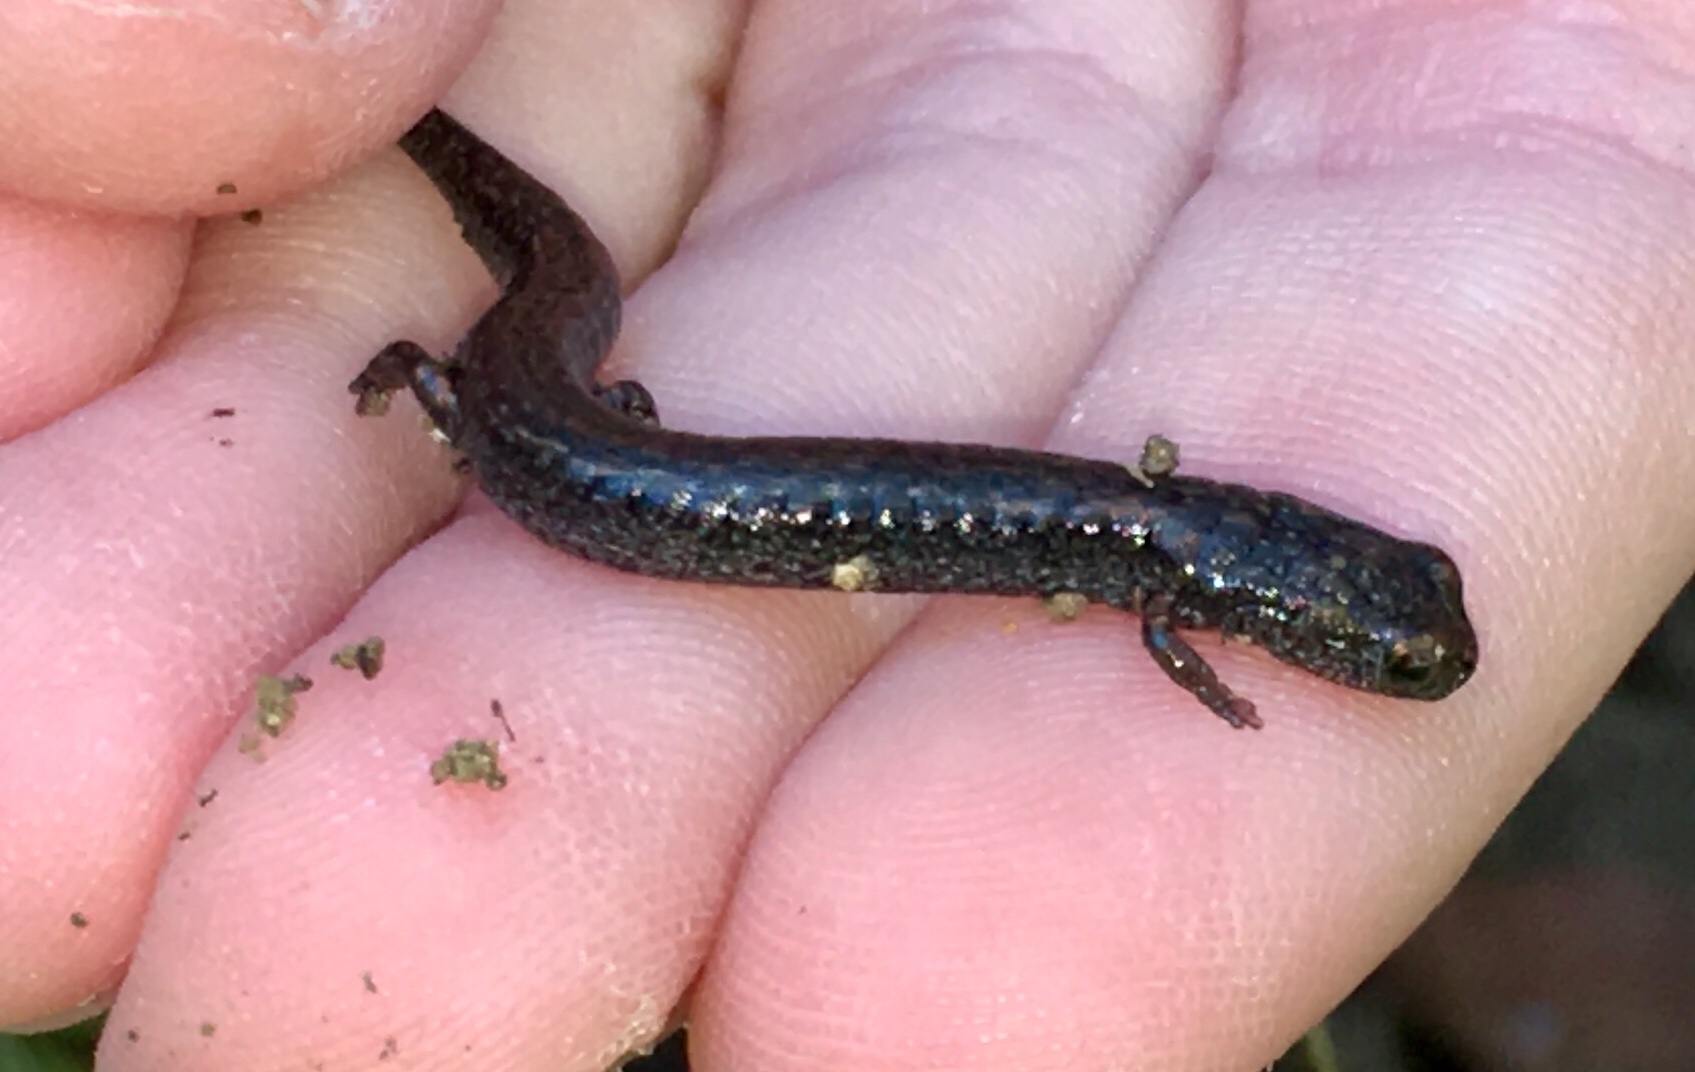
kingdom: Animalia
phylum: Chordata
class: Amphibia
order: Caudata
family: Plethodontidae
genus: Batrachoseps
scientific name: Batrachoseps major
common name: Garden slender salamander
